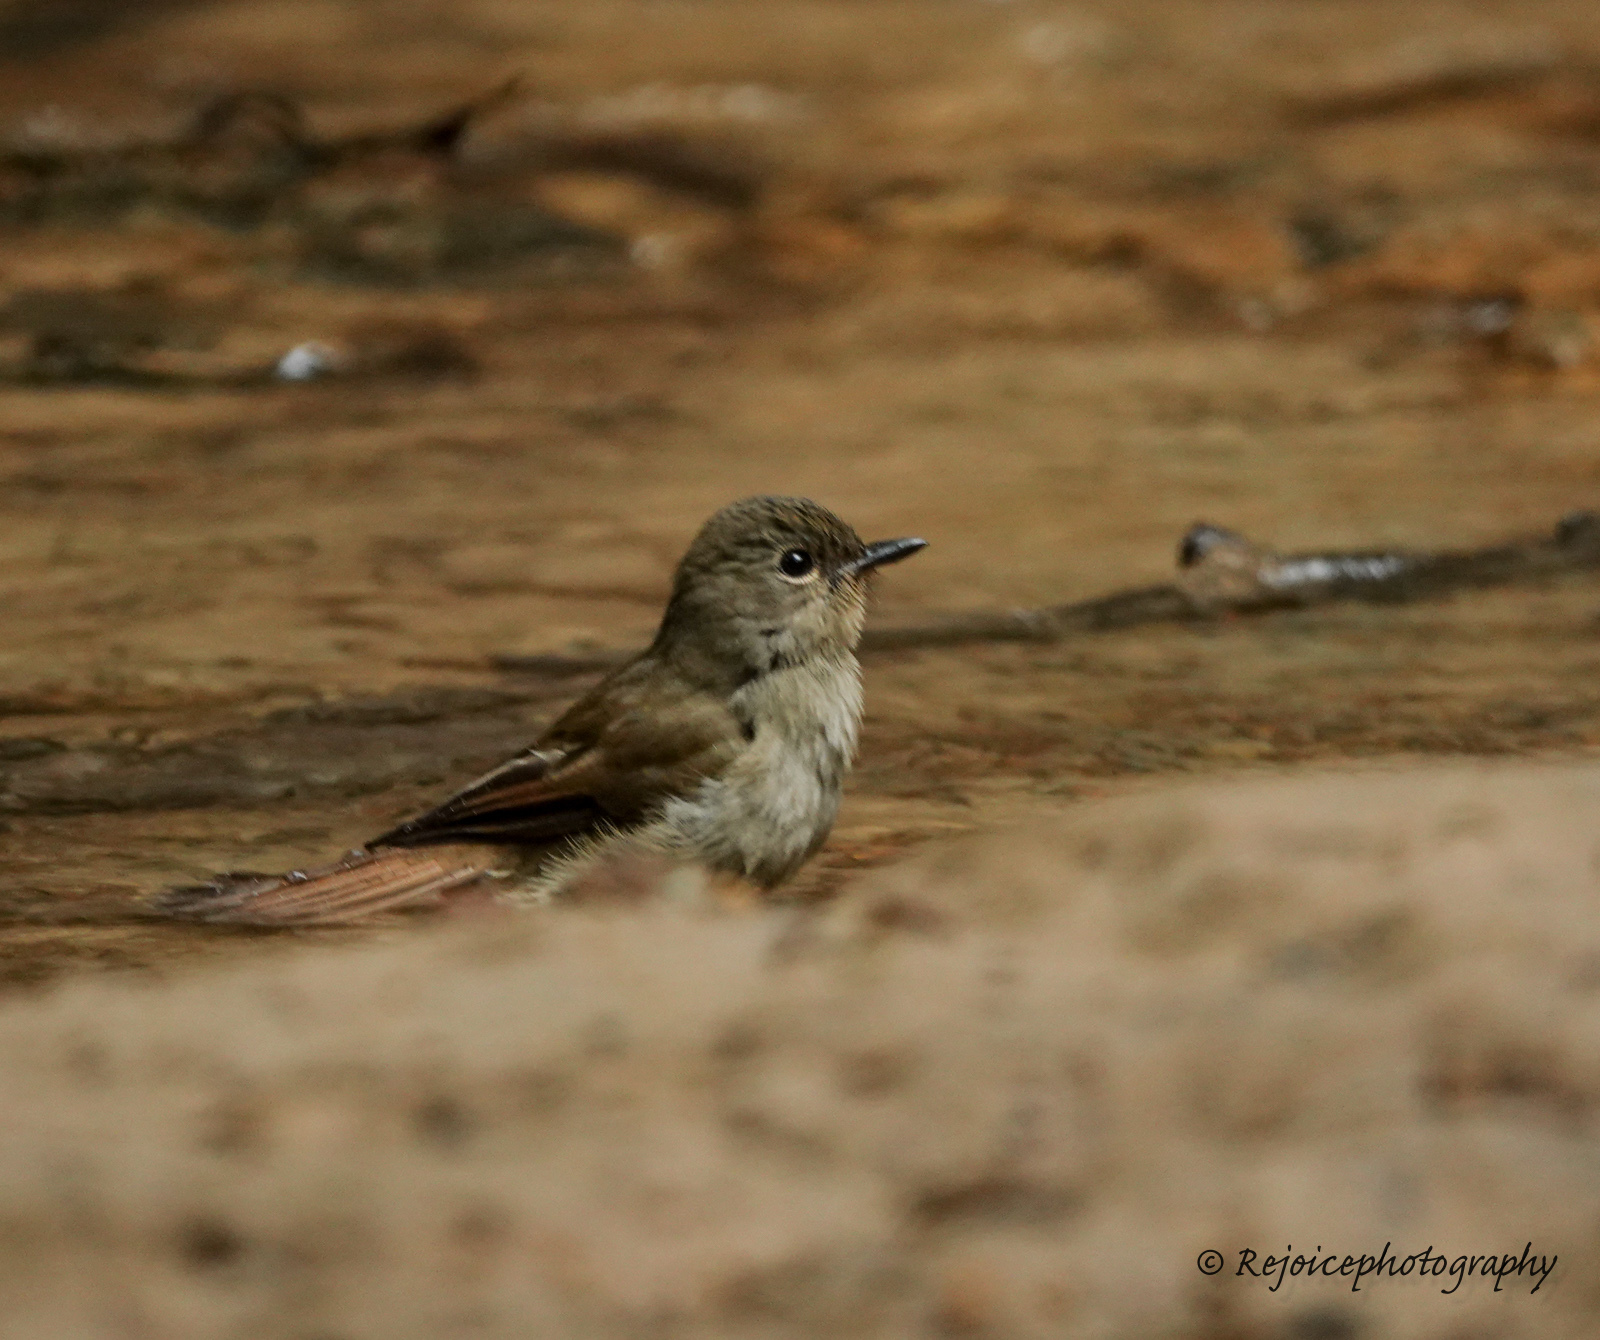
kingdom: Animalia
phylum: Chordata
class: Aves
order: Passeriformes
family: Muscicapidae
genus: Cyornis
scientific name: Cyornis unicolor
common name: Pale blue flycatcher
